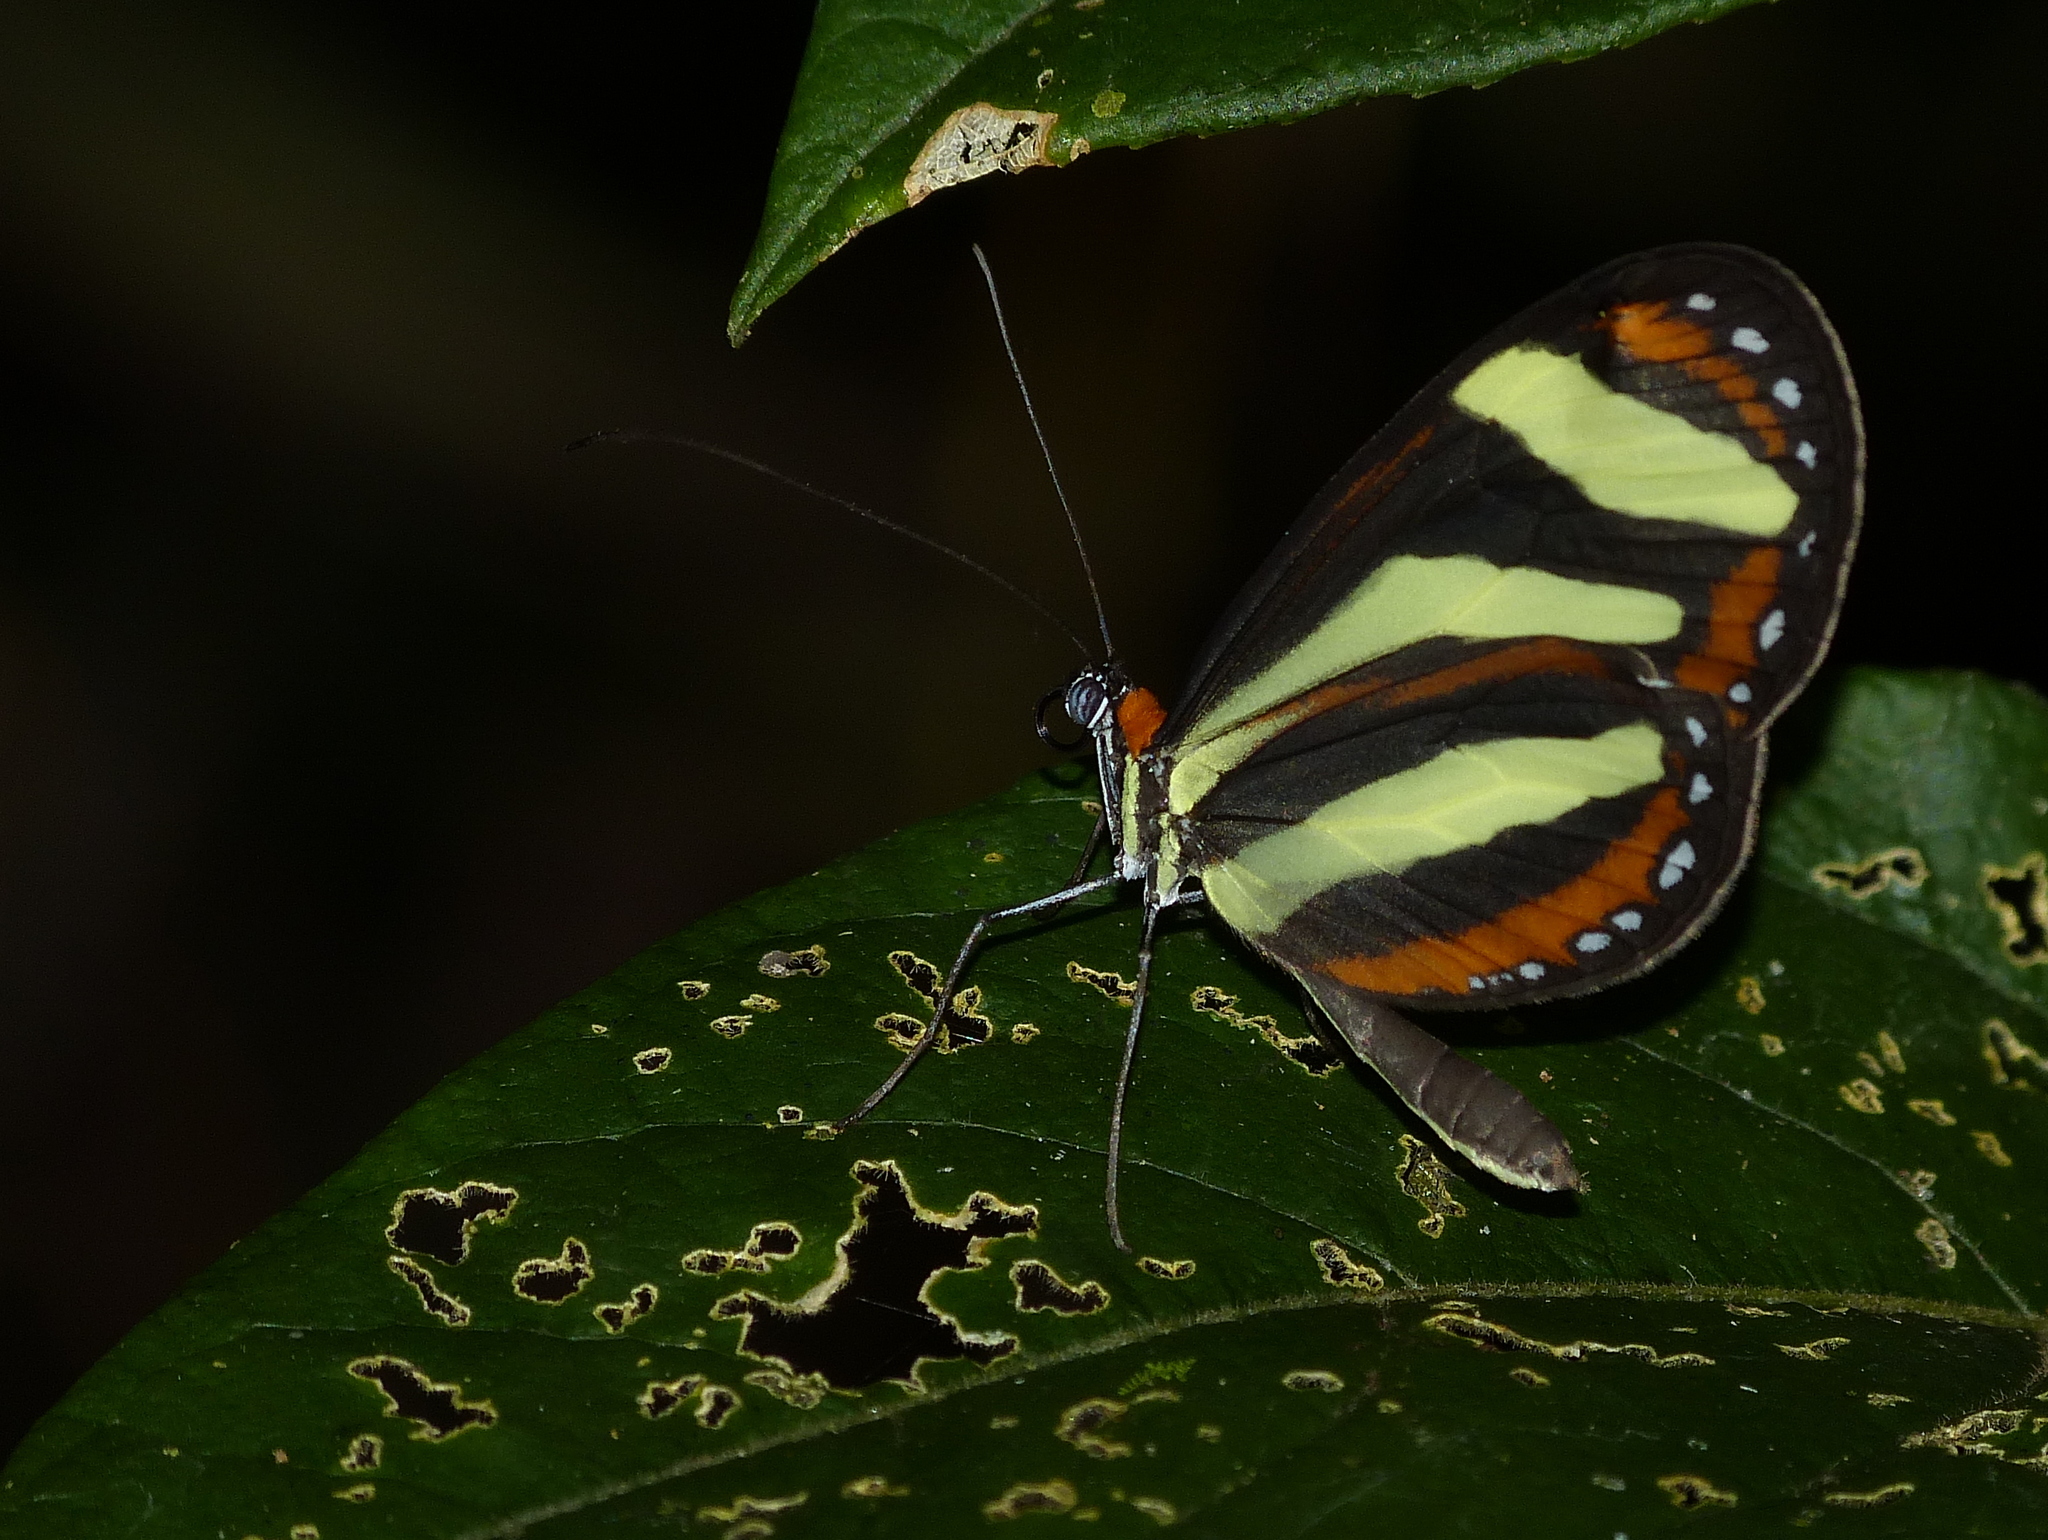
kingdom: Animalia
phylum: Arthropoda
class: Insecta
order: Lepidoptera
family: Nymphalidae
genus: Aeria
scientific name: Aeria eurimedia
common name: Banded tigerwing
